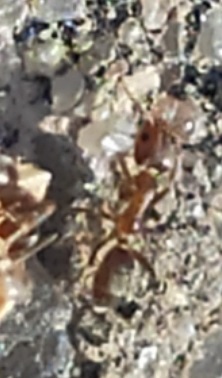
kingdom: Animalia
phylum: Arthropoda
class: Insecta
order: Hymenoptera
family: Formicidae
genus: Linepithema
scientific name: Linepithema humile
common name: Argentine ant
